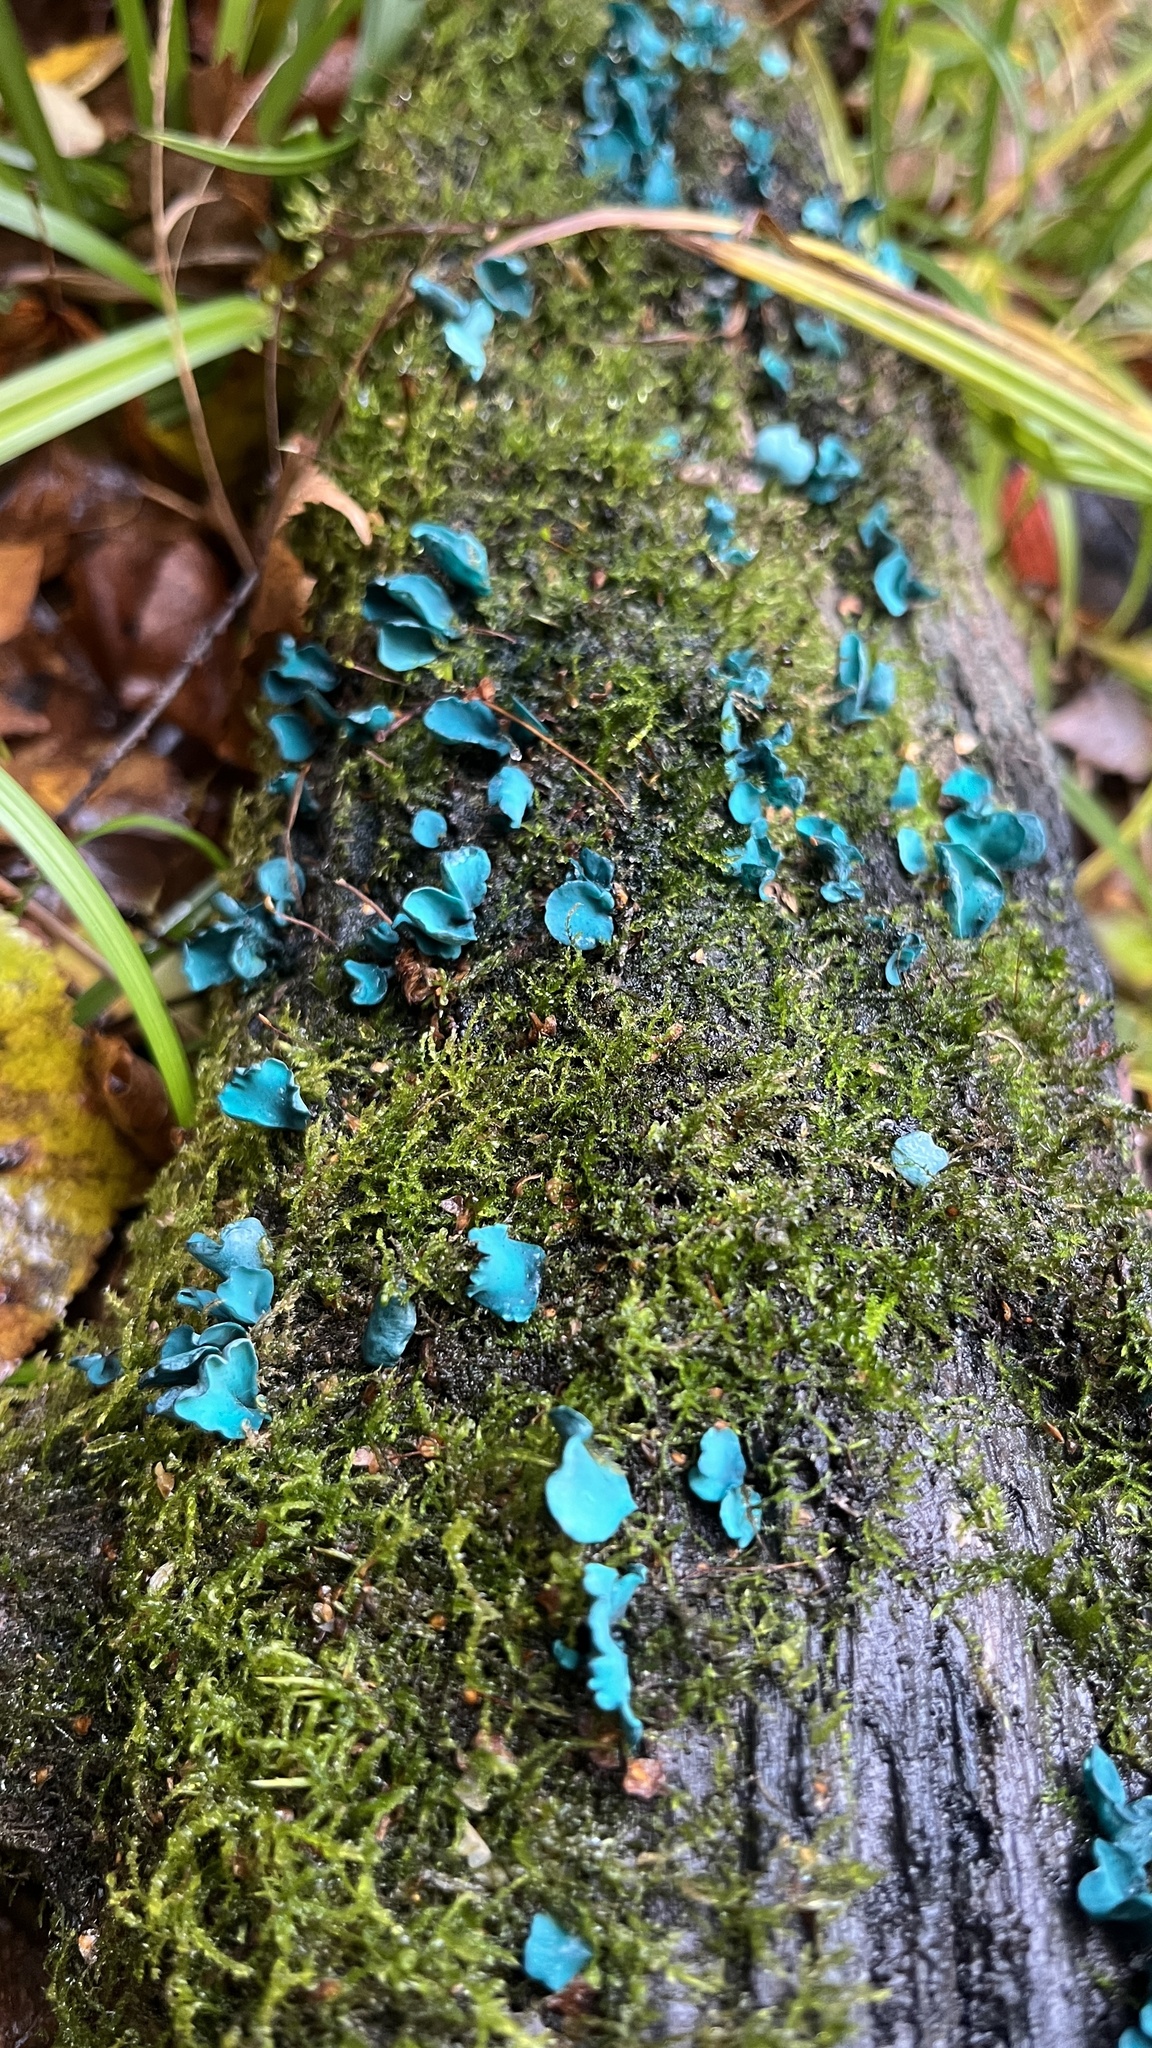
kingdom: Fungi
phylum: Ascomycota
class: Leotiomycetes
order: Helotiales
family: Chlorociboriaceae
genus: Chlorociboria
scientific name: Chlorociboria aeruginascens
